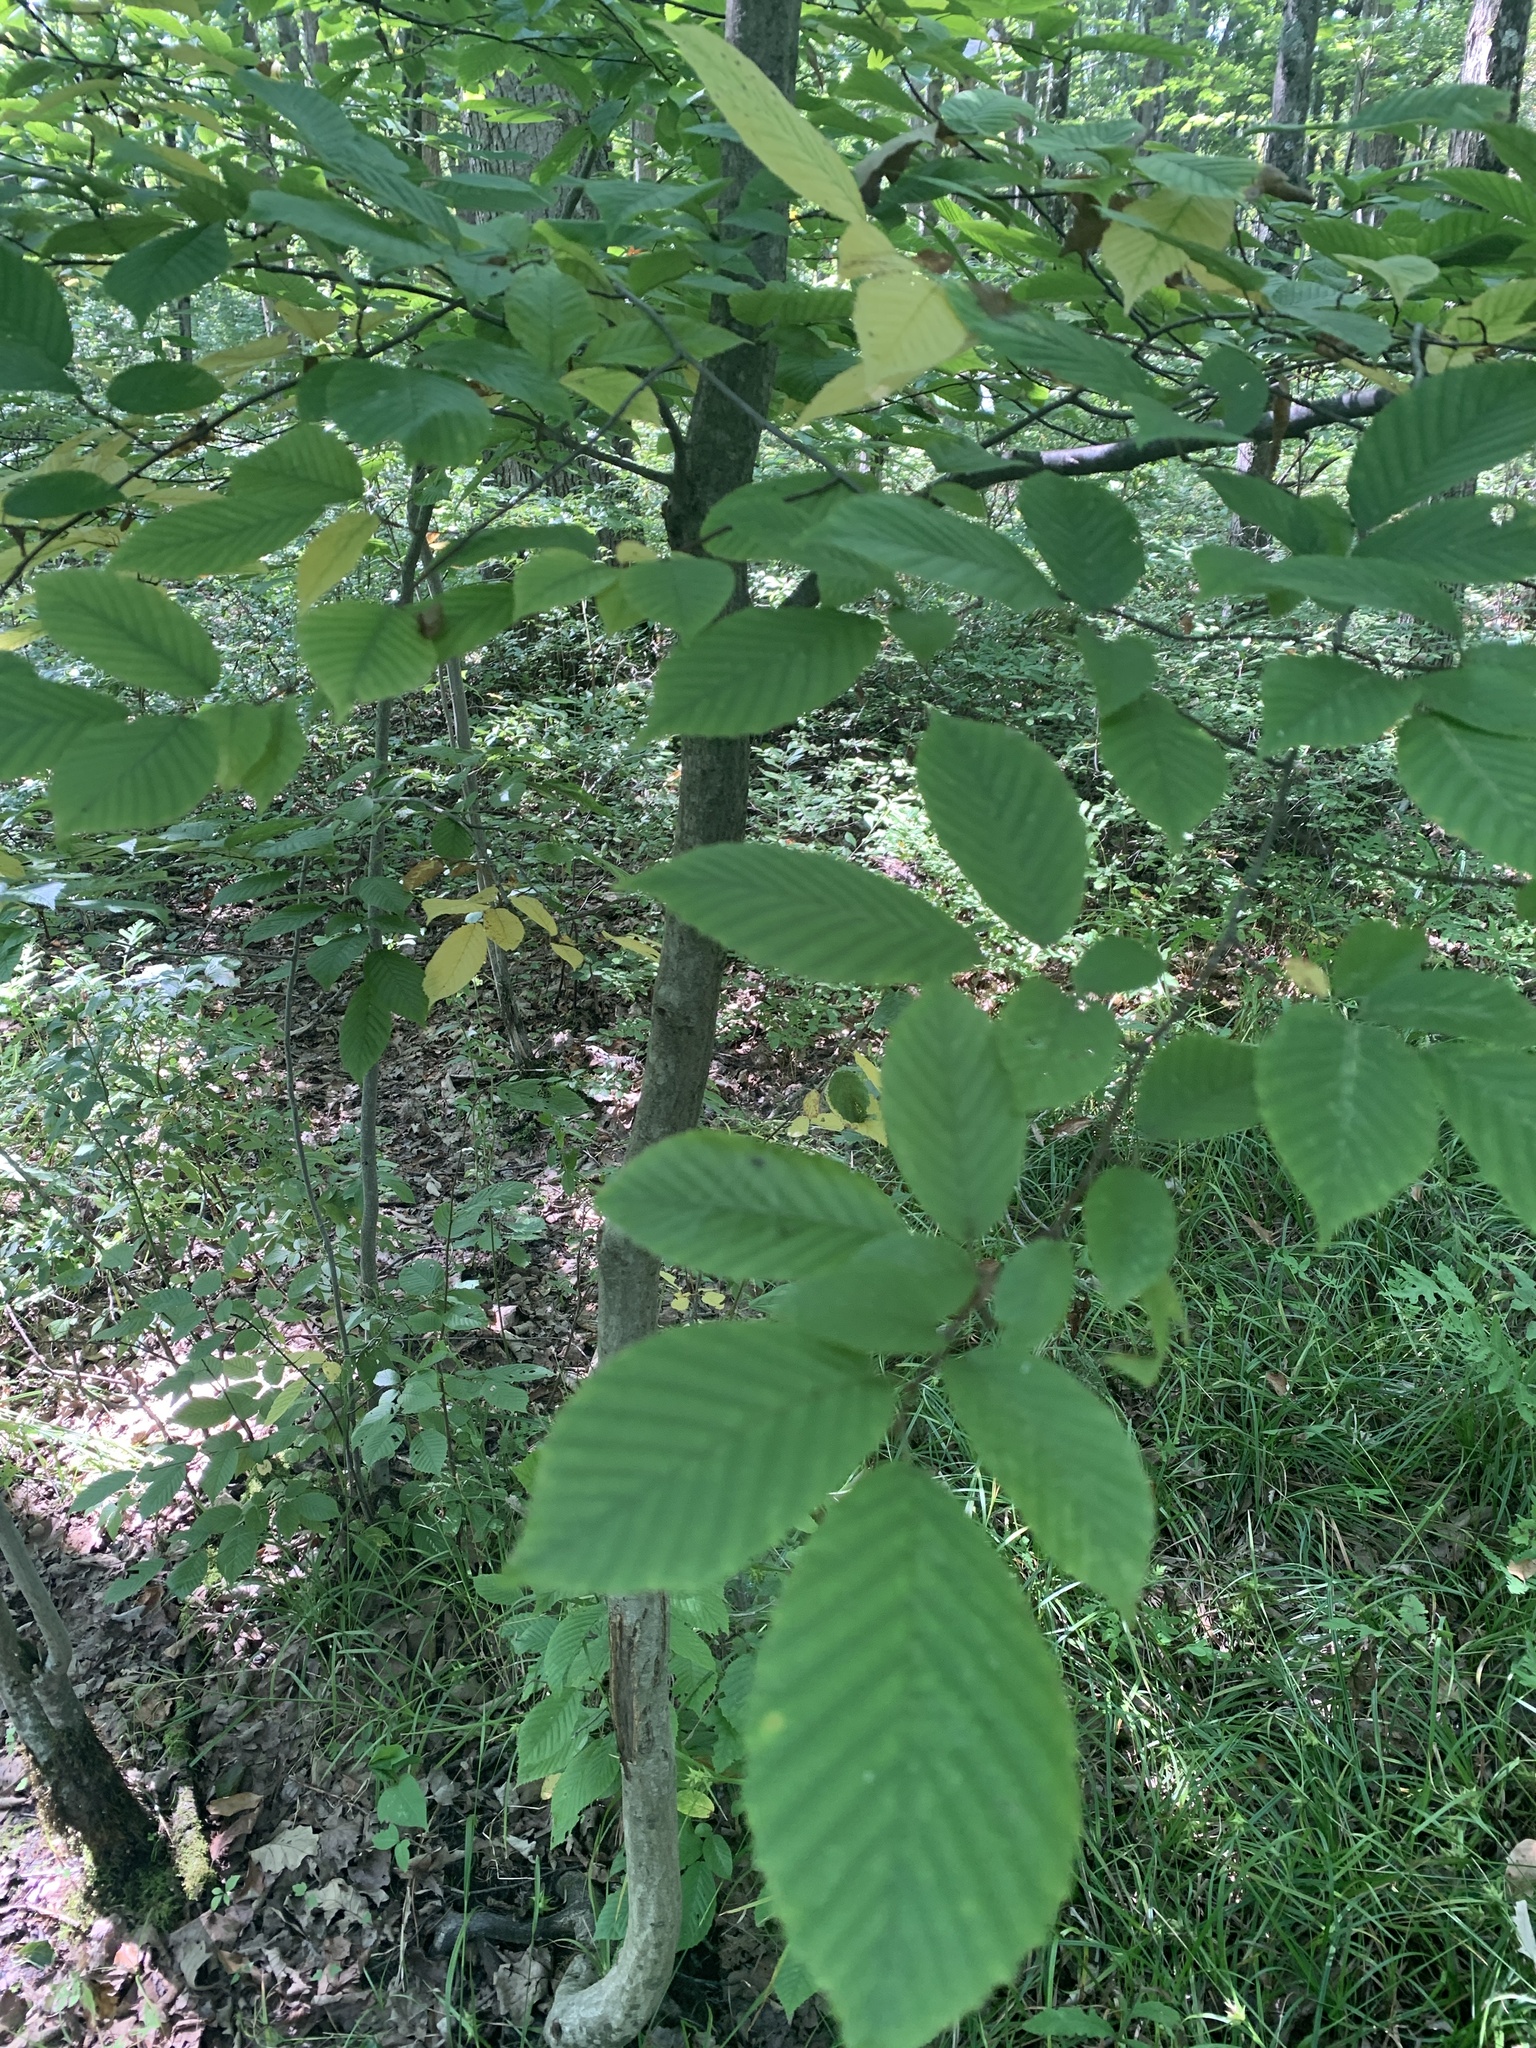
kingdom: Plantae
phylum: Tracheophyta
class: Magnoliopsida
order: Fagales
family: Betulaceae
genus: Carpinus
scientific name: Carpinus caroliniana
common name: American hornbeam
